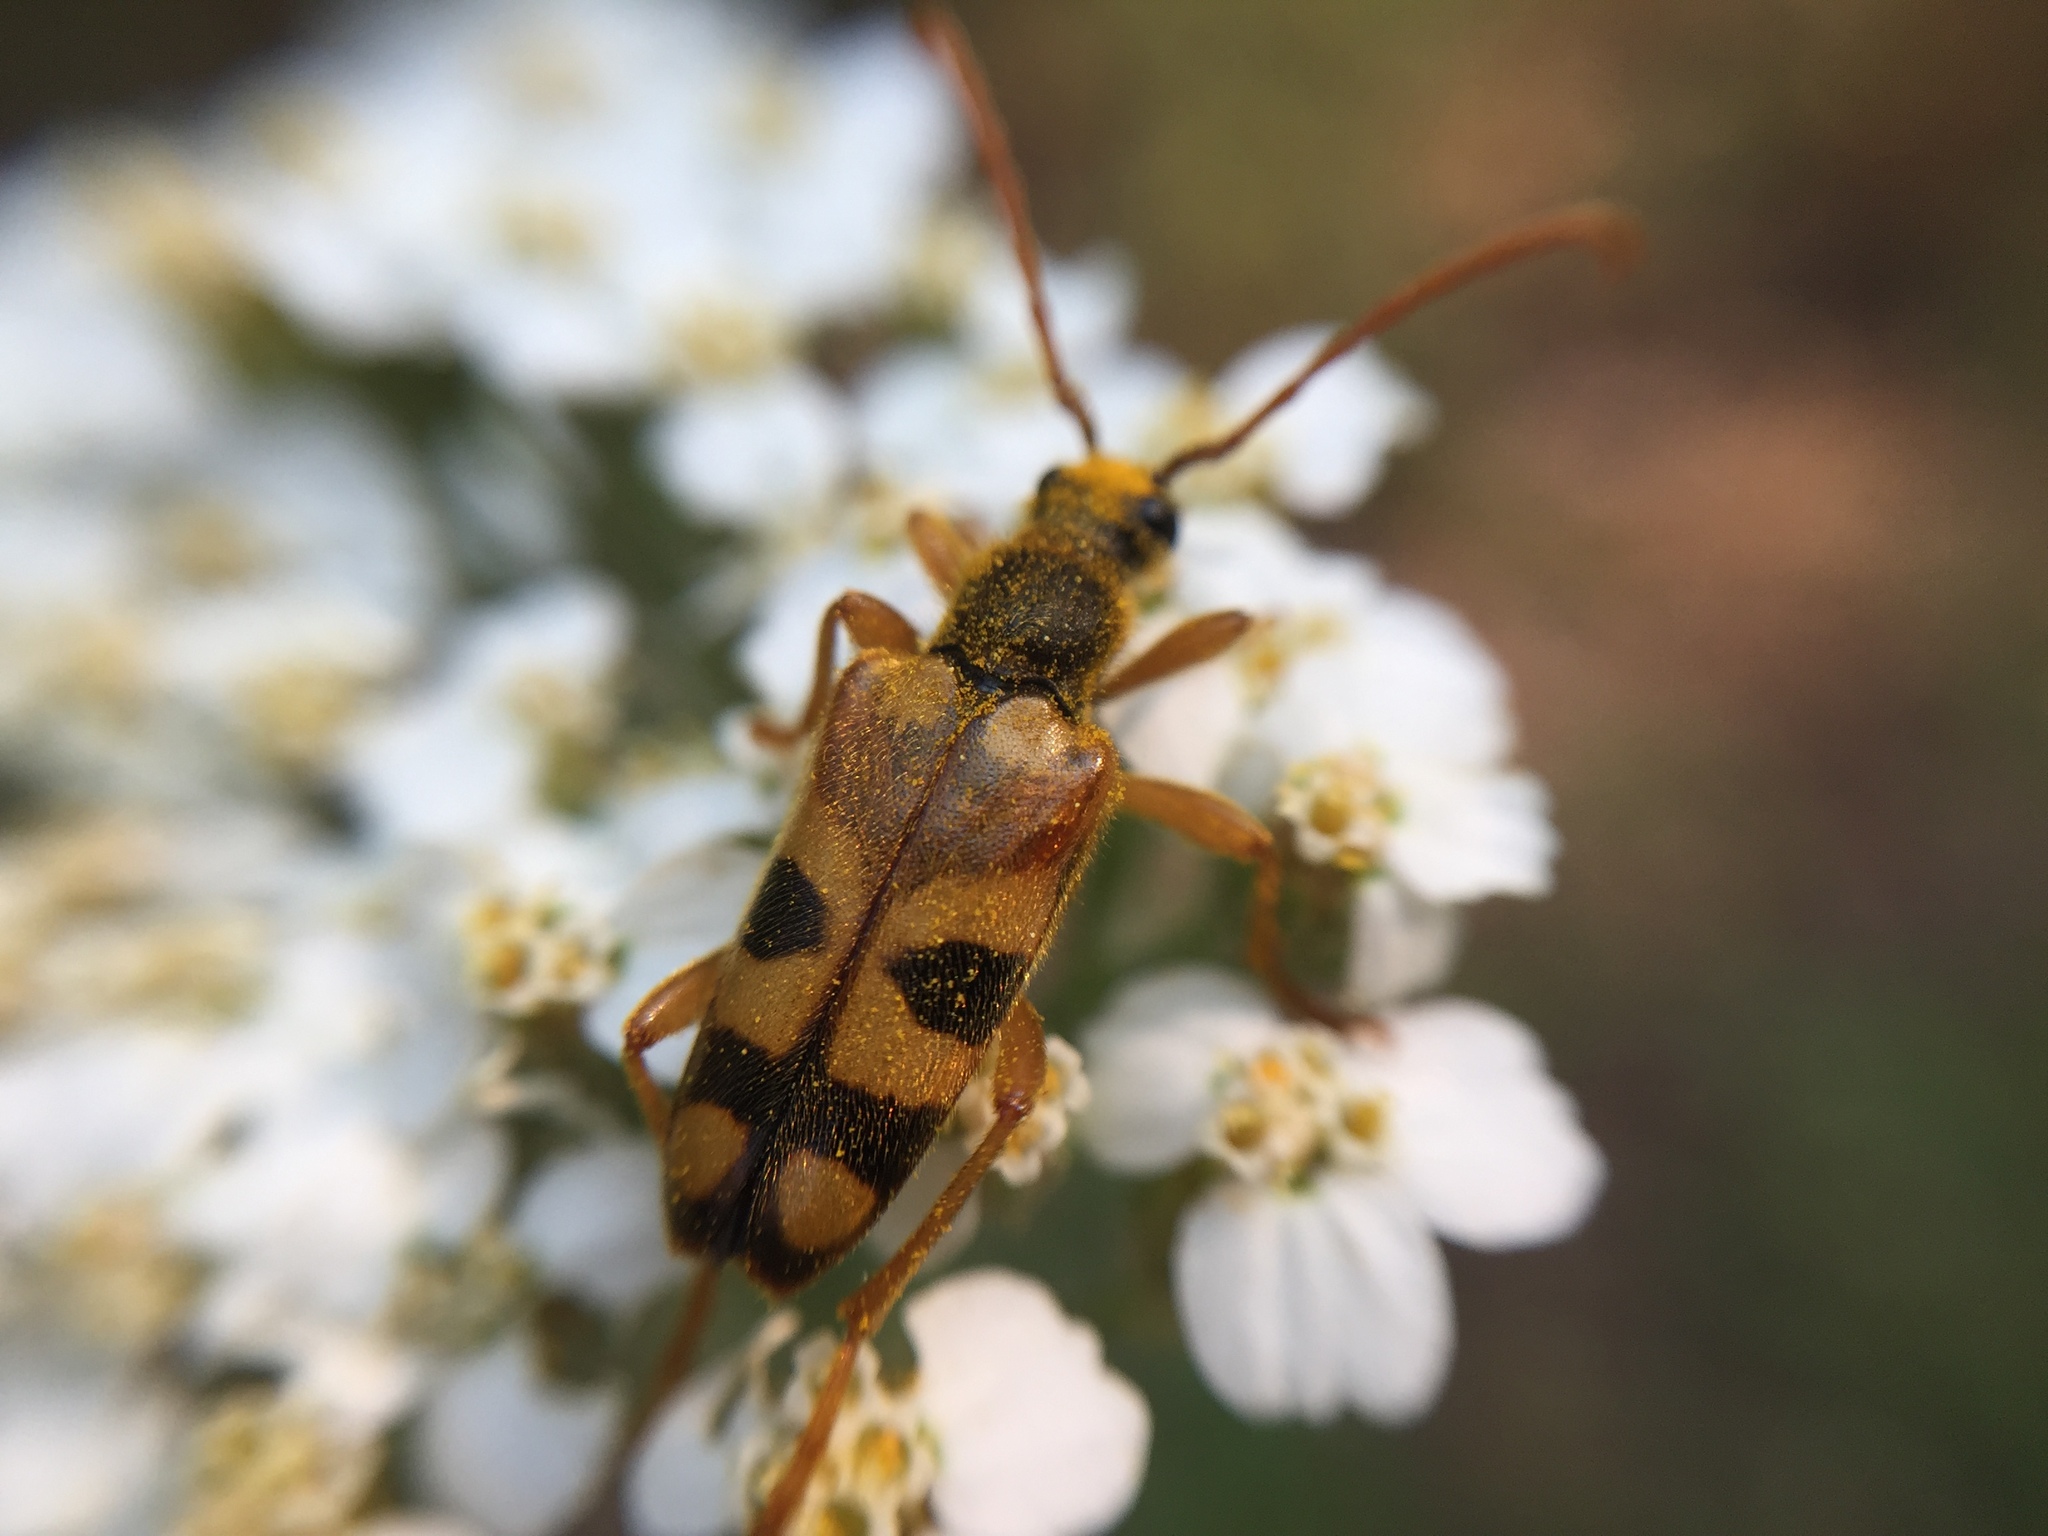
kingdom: Animalia
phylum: Arthropoda
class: Insecta
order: Coleoptera
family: Cerambycidae
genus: Xestoleptura
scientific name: Xestoleptura crassipes
